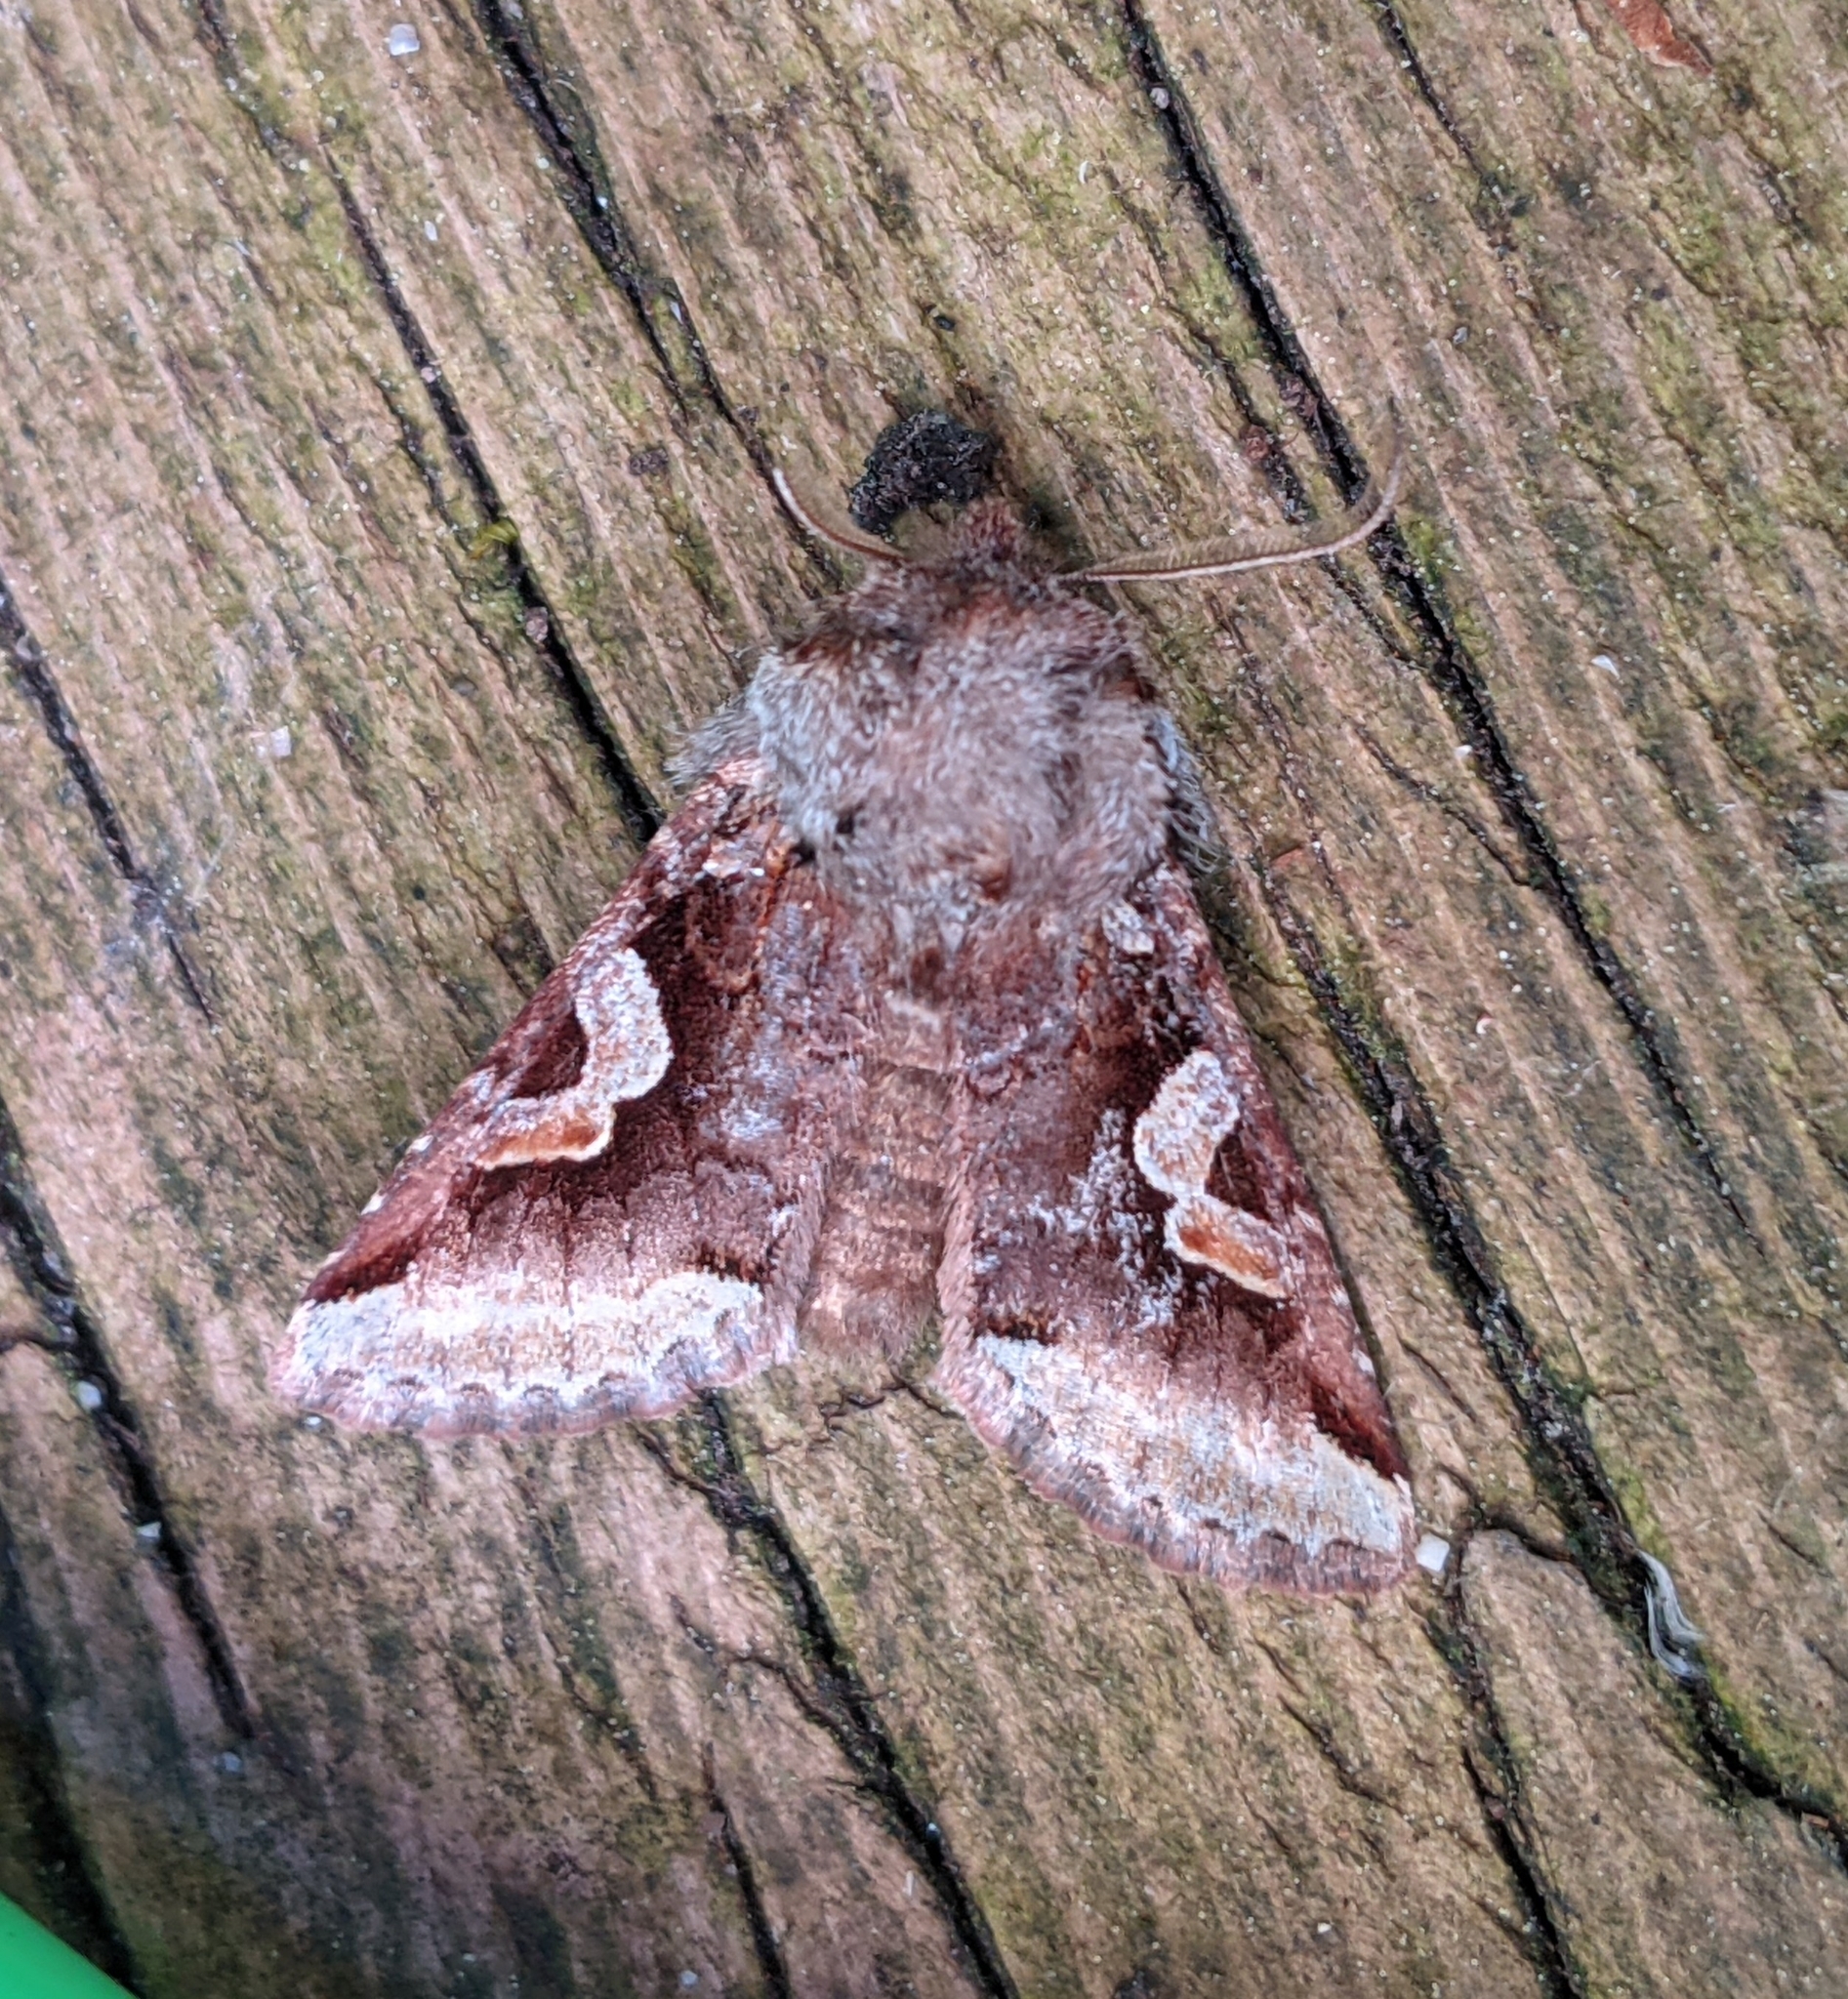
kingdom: Animalia
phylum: Arthropoda
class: Insecta
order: Lepidoptera
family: Noctuidae
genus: Stretchia
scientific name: Stretchia muricina
